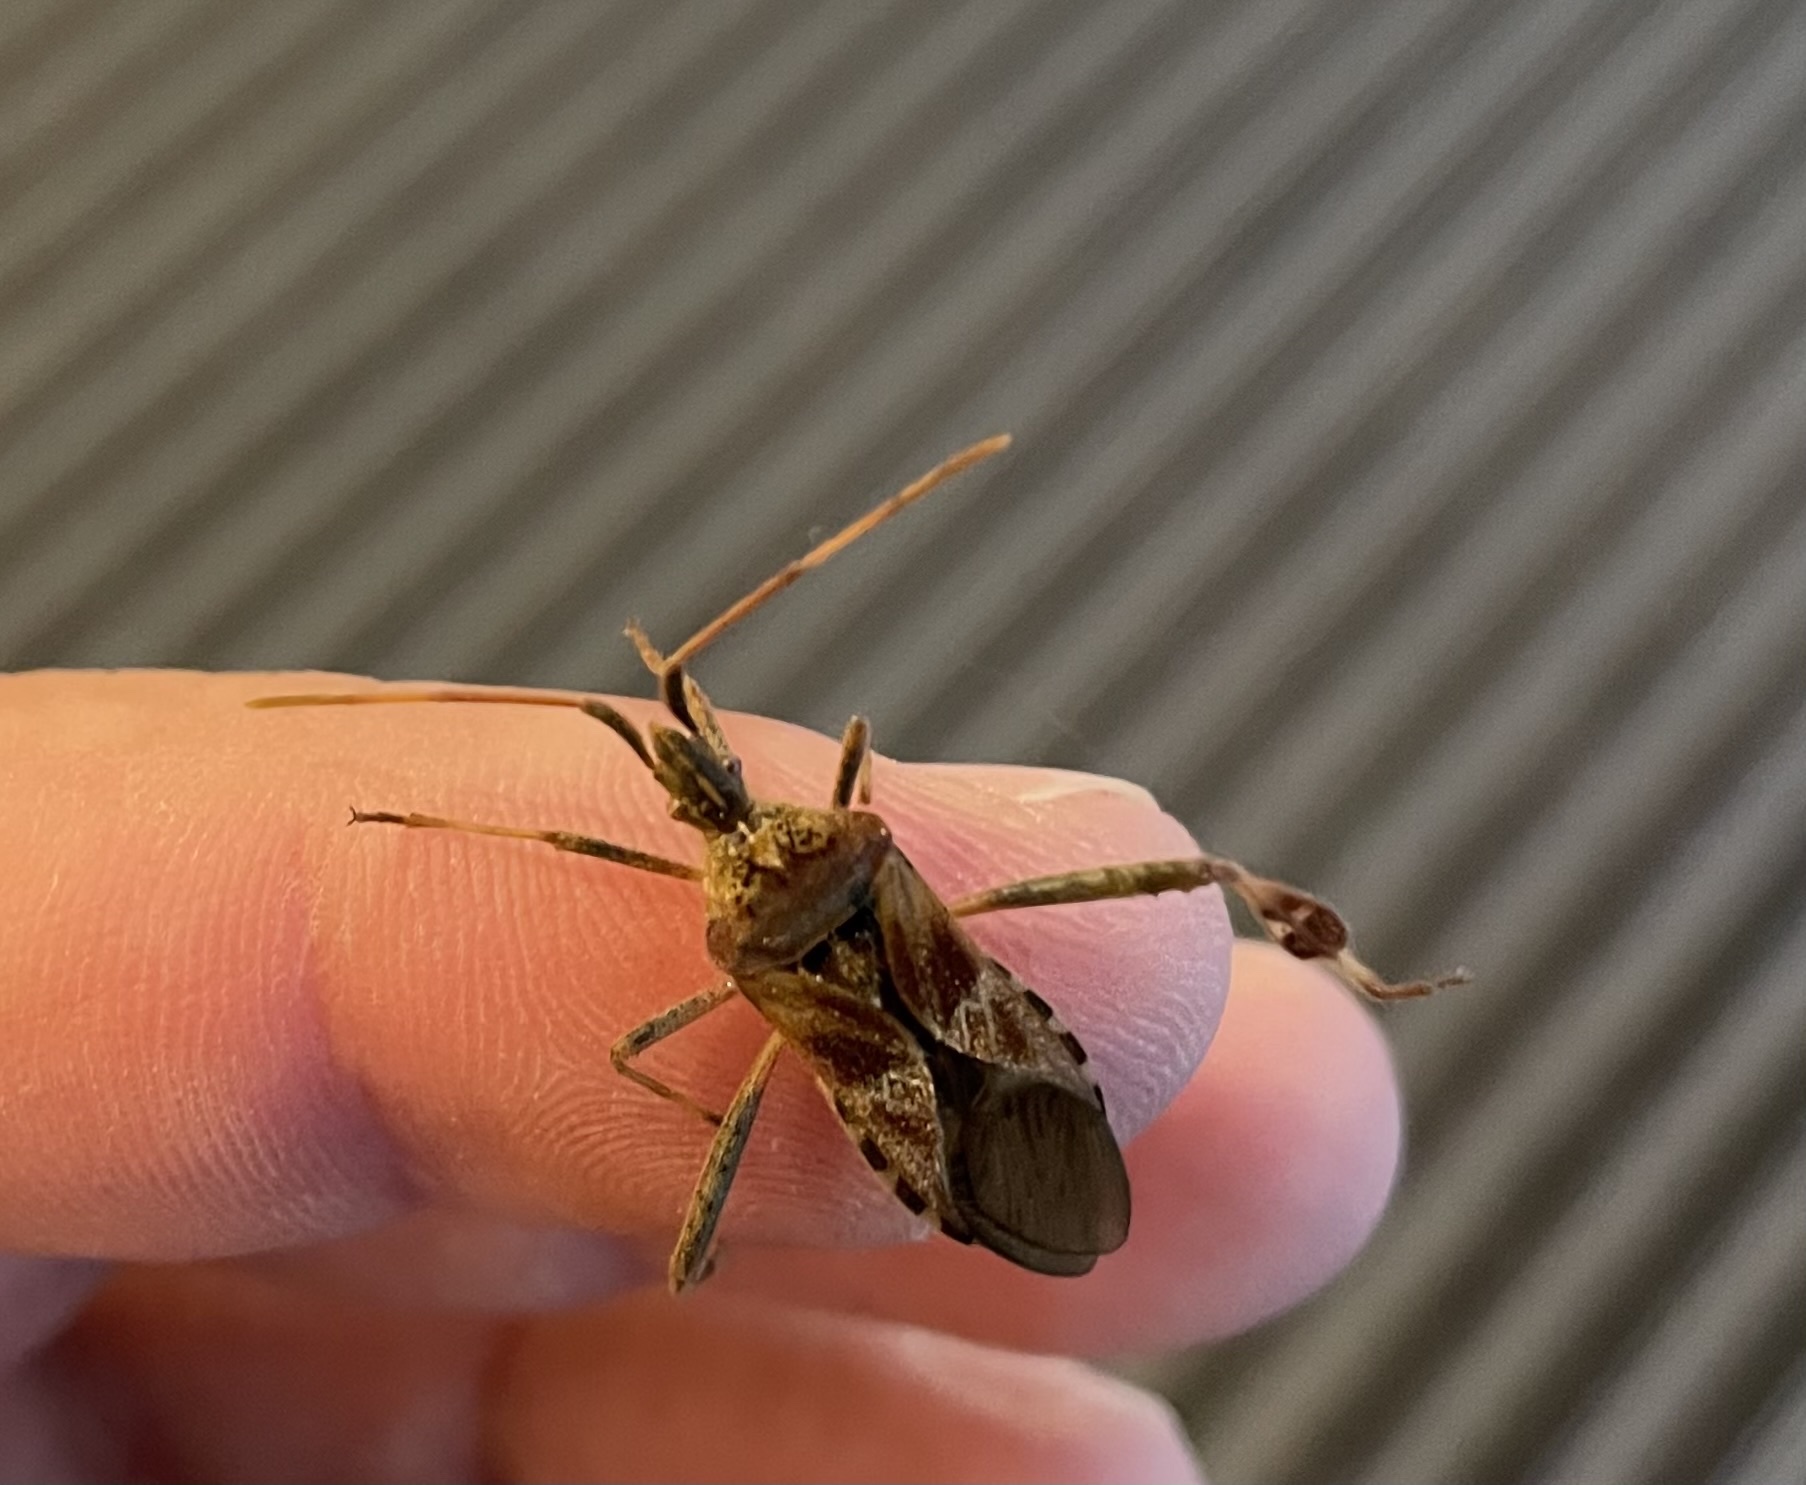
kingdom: Animalia
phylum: Arthropoda
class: Insecta
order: Hemiptera
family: Coreidae
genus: Leptoglossus
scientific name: Leptoglossus occidentalis
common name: Western conifer-seed bug
